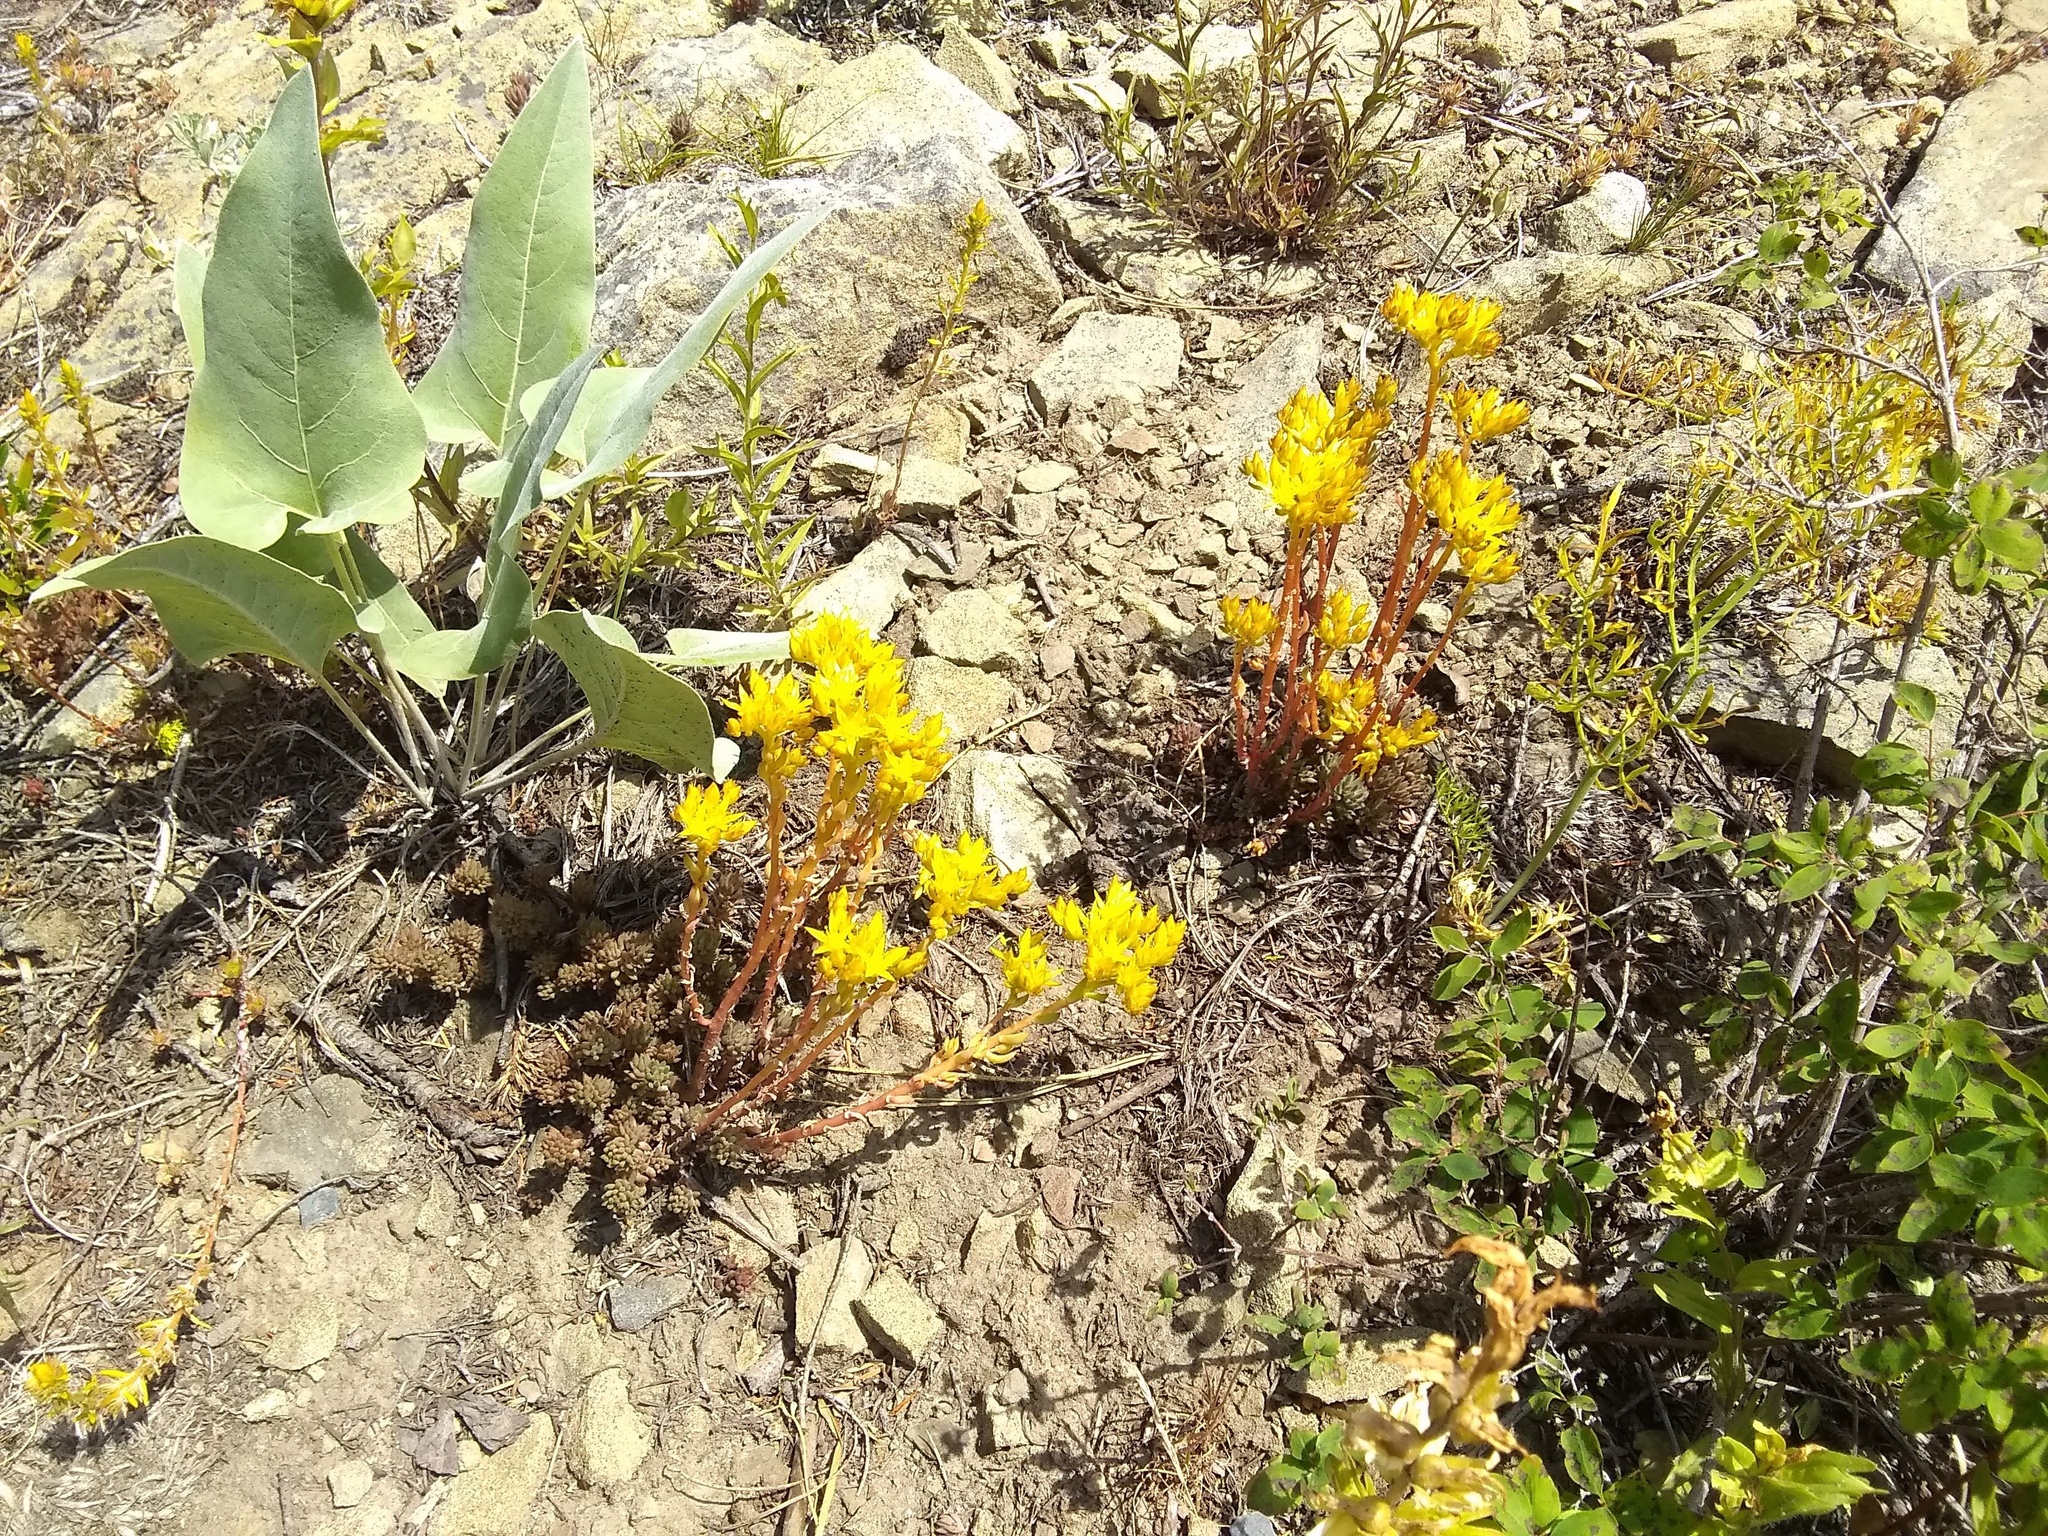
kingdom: Plantae
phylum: Tracheophyta
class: Magnoliopsida
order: Saxifragales
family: Crassulaceae
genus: Sedum
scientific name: Sedum lanceolatum
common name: Common stonecrop
